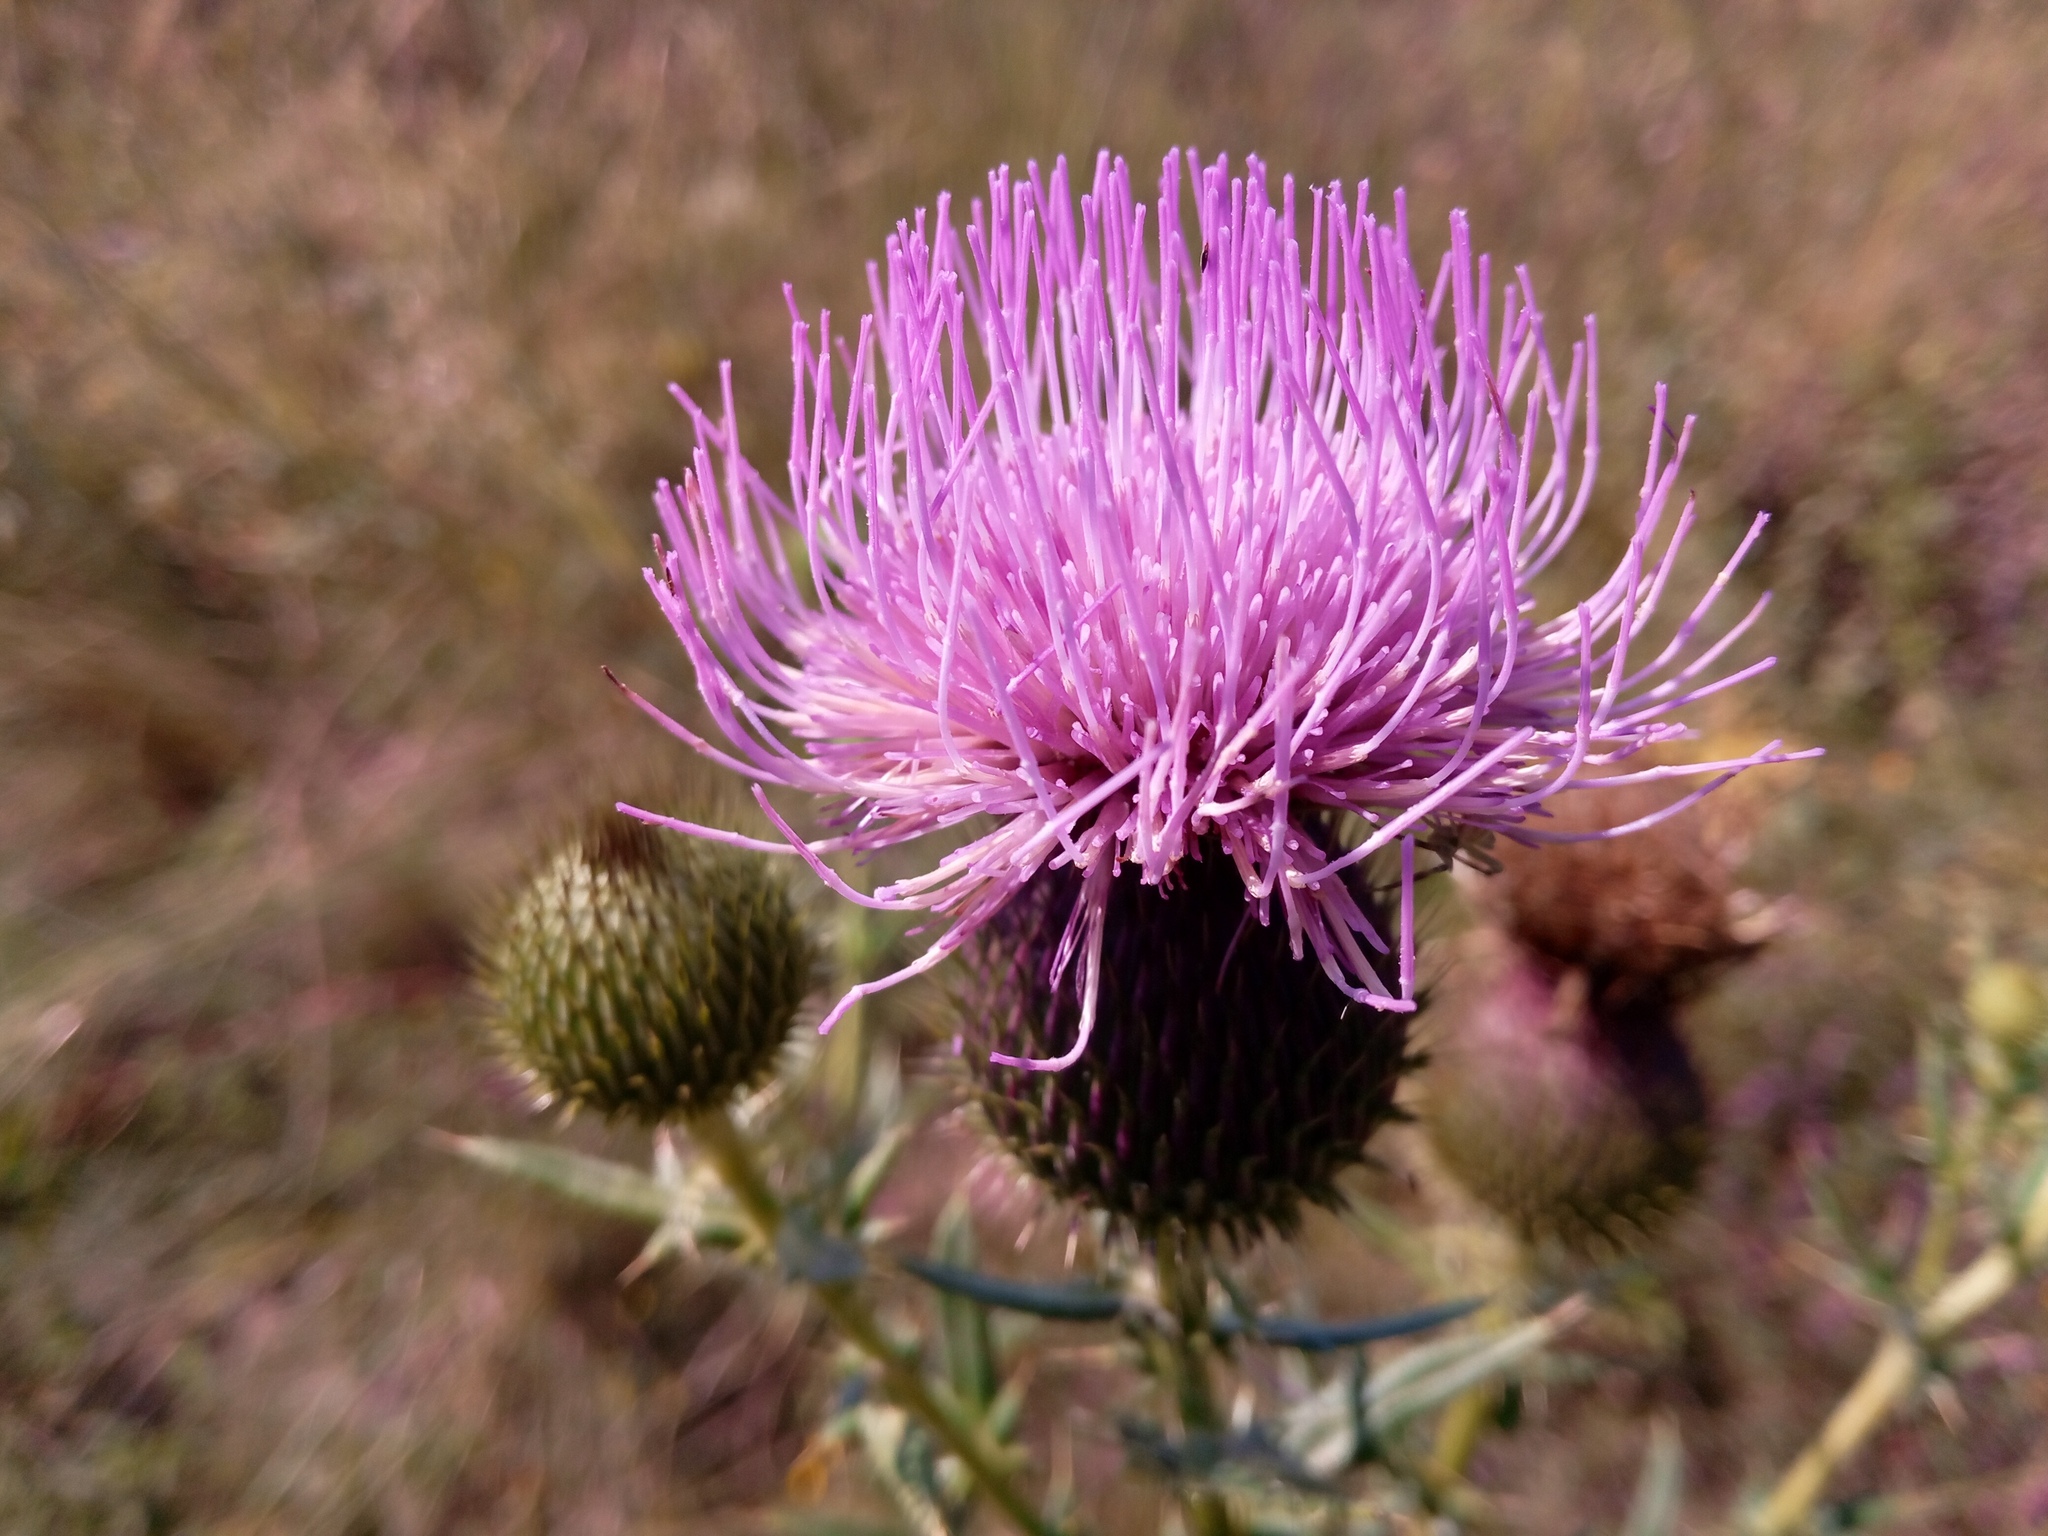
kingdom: Plantae
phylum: Tracheophyta
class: Magnoliopsida
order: Asterales
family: Asteraceae
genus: Lophiolepis
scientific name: Lophiolepis ukranica
